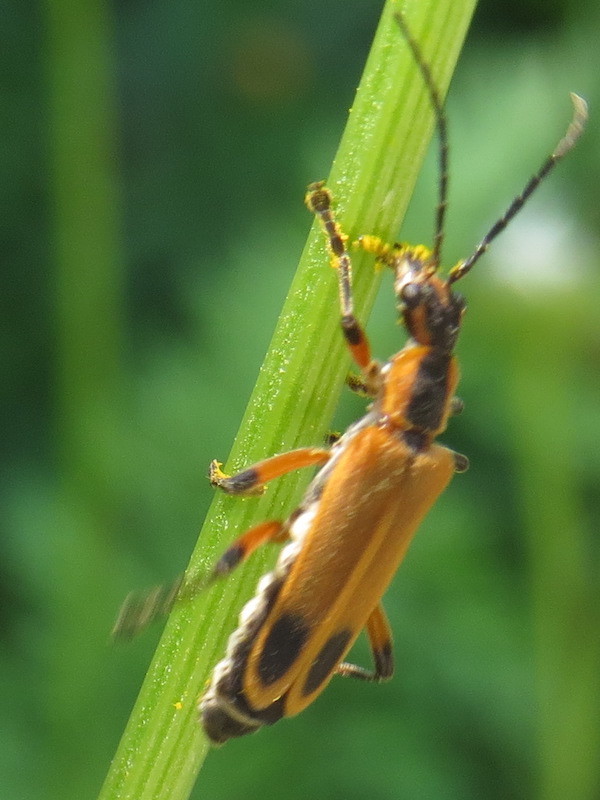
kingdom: Animalia
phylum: Arthropoda
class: Insecta
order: Coleoptera
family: Cantharidae
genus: Chauliognathus
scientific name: Chauliognathus marginatus
